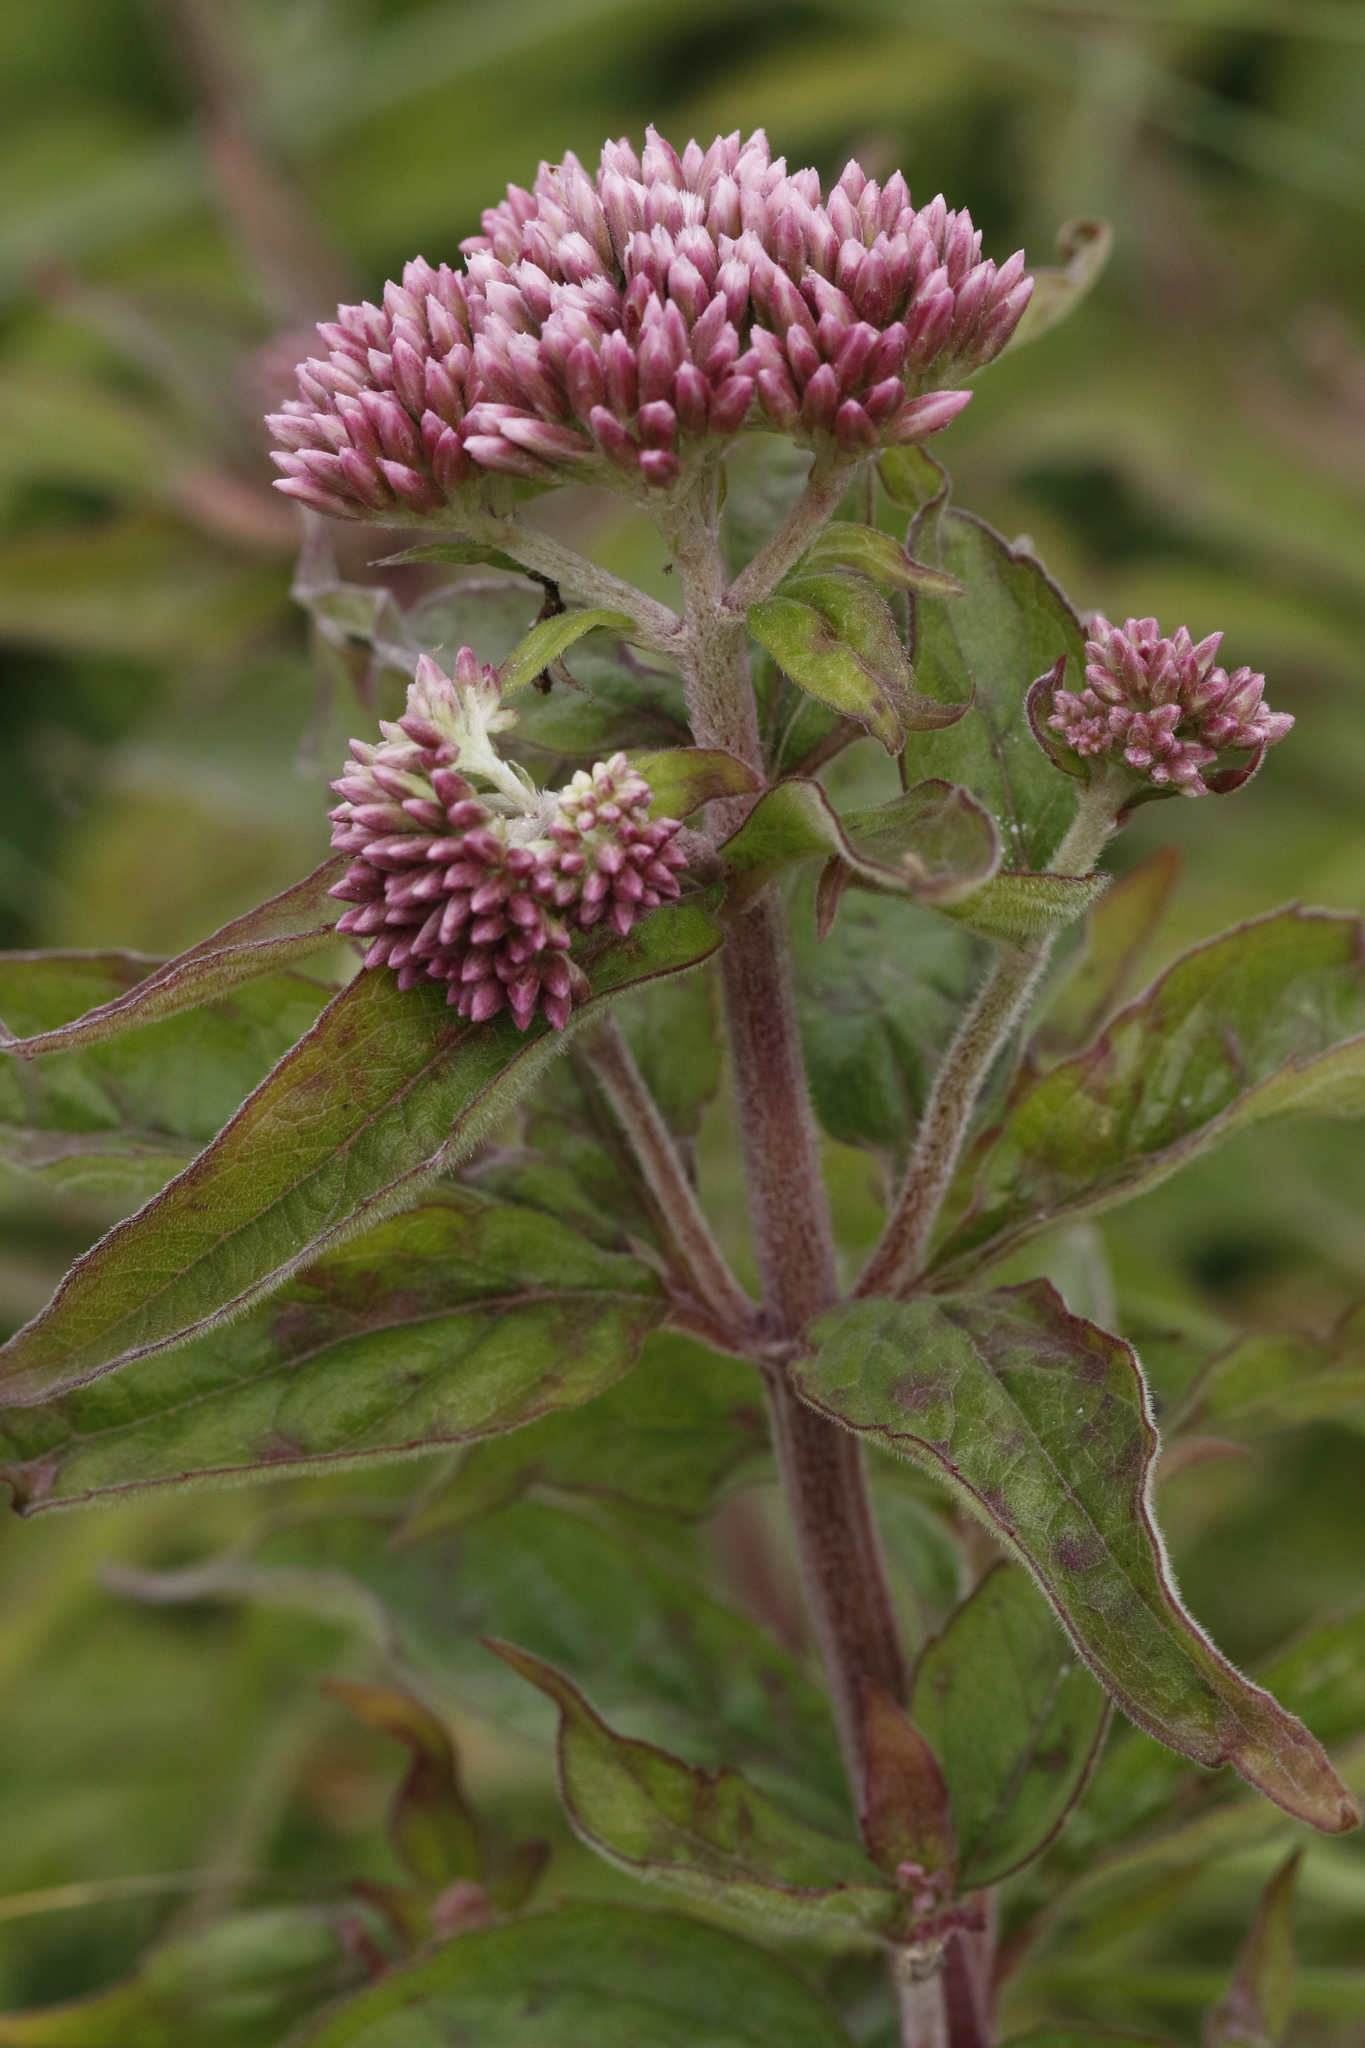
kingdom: Plantae
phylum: Tracheophyta
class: Magnoliopsida
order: Asterales
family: Asteraceae
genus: Eupatorium
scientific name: Eupatorium cannabinum
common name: Hemp-agrimony
